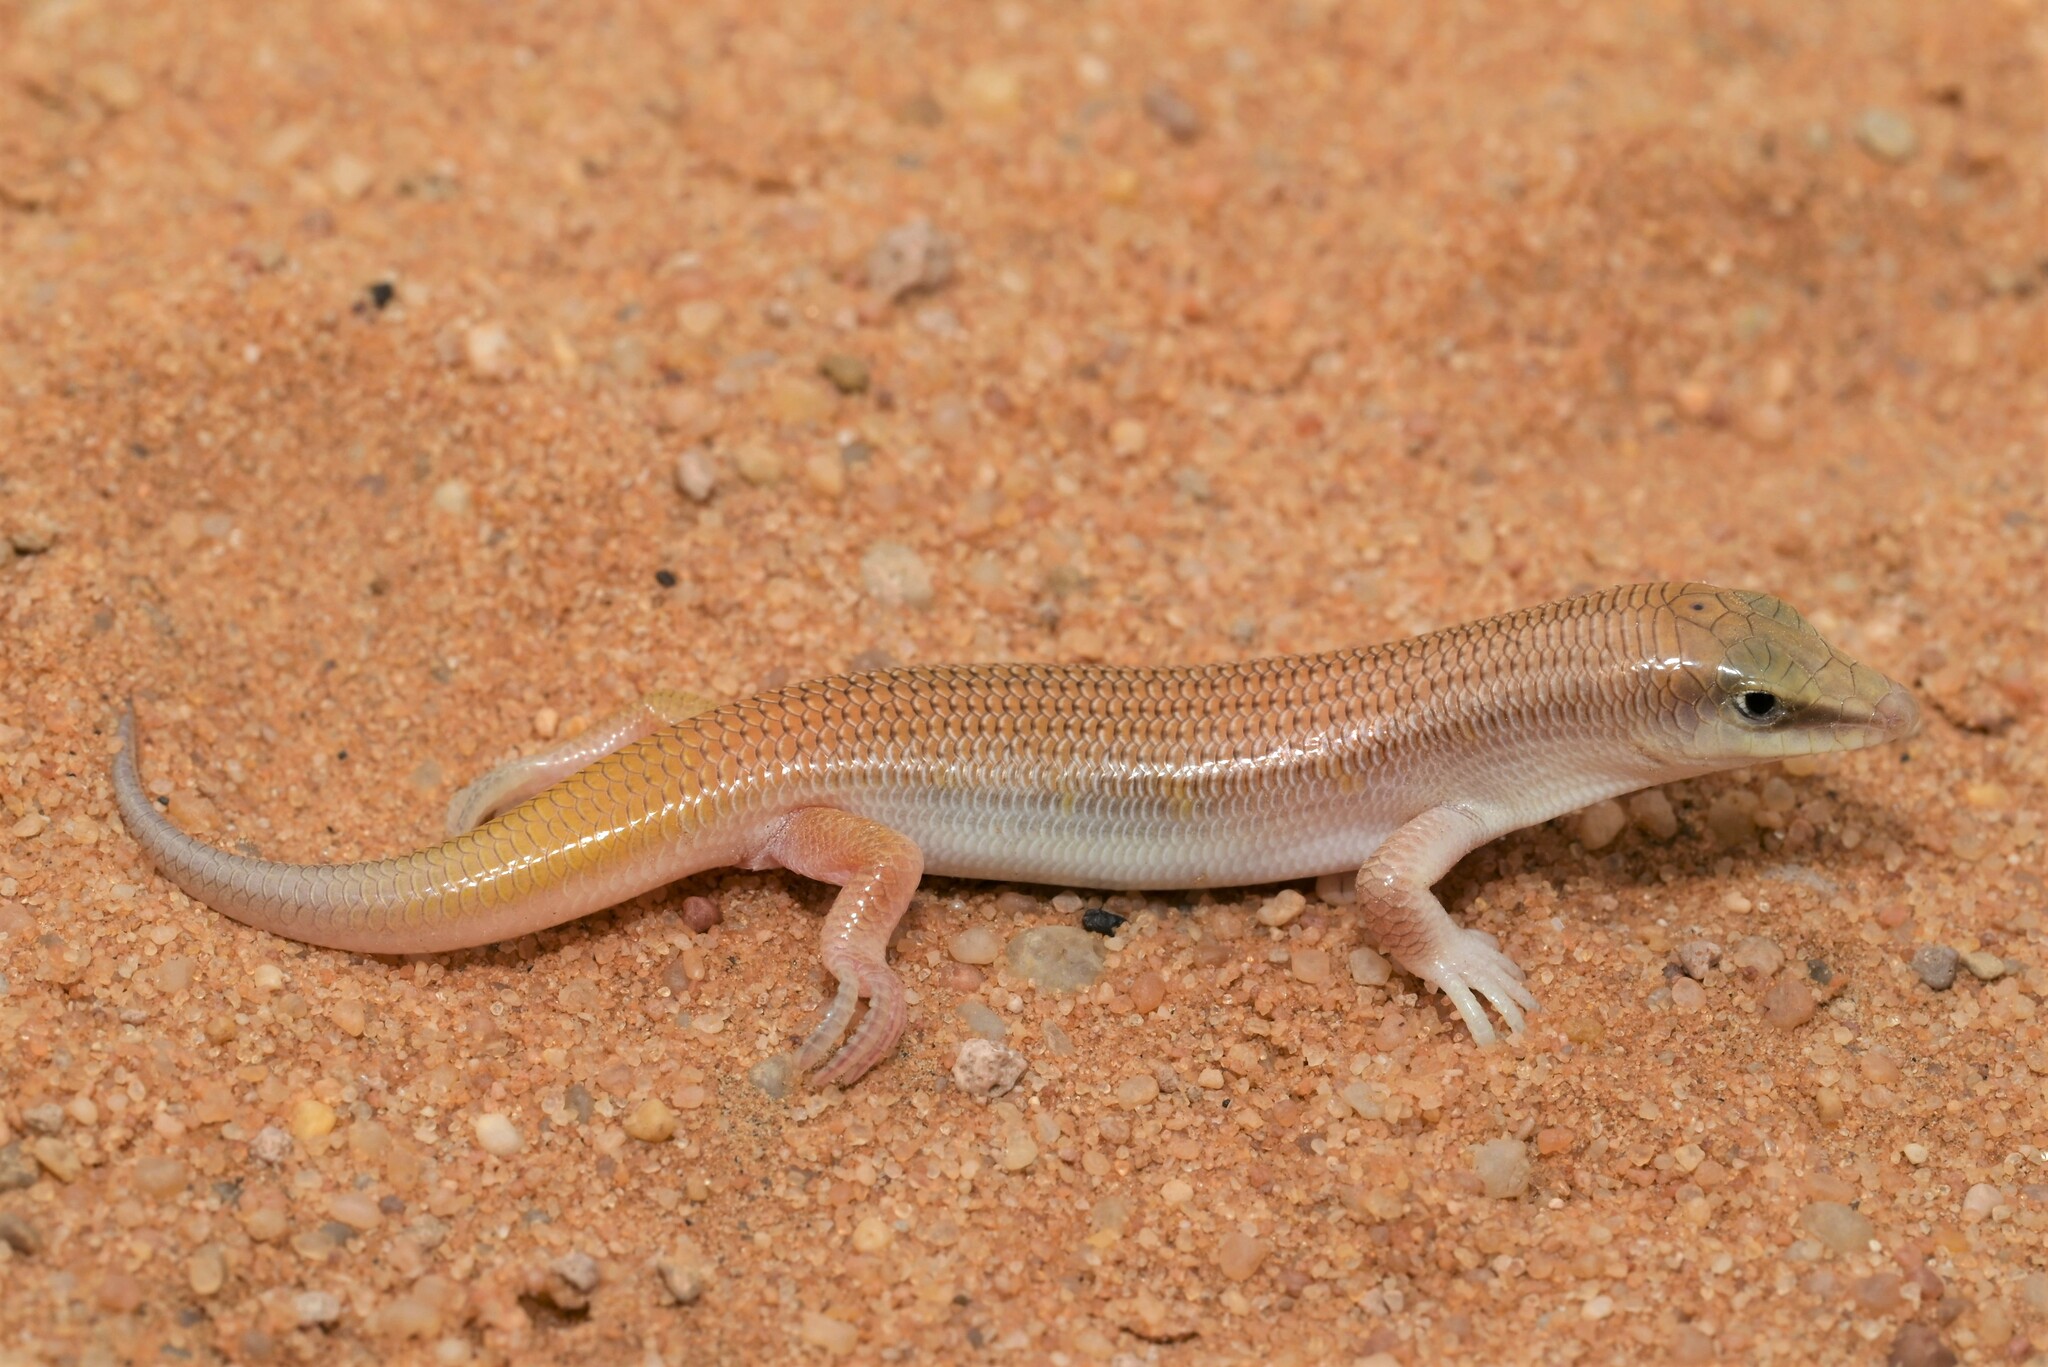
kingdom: Animalia
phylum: Chordata
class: Squamata
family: Scincidae
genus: Scincus
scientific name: Scincus conirostris
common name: Sandfish skink
